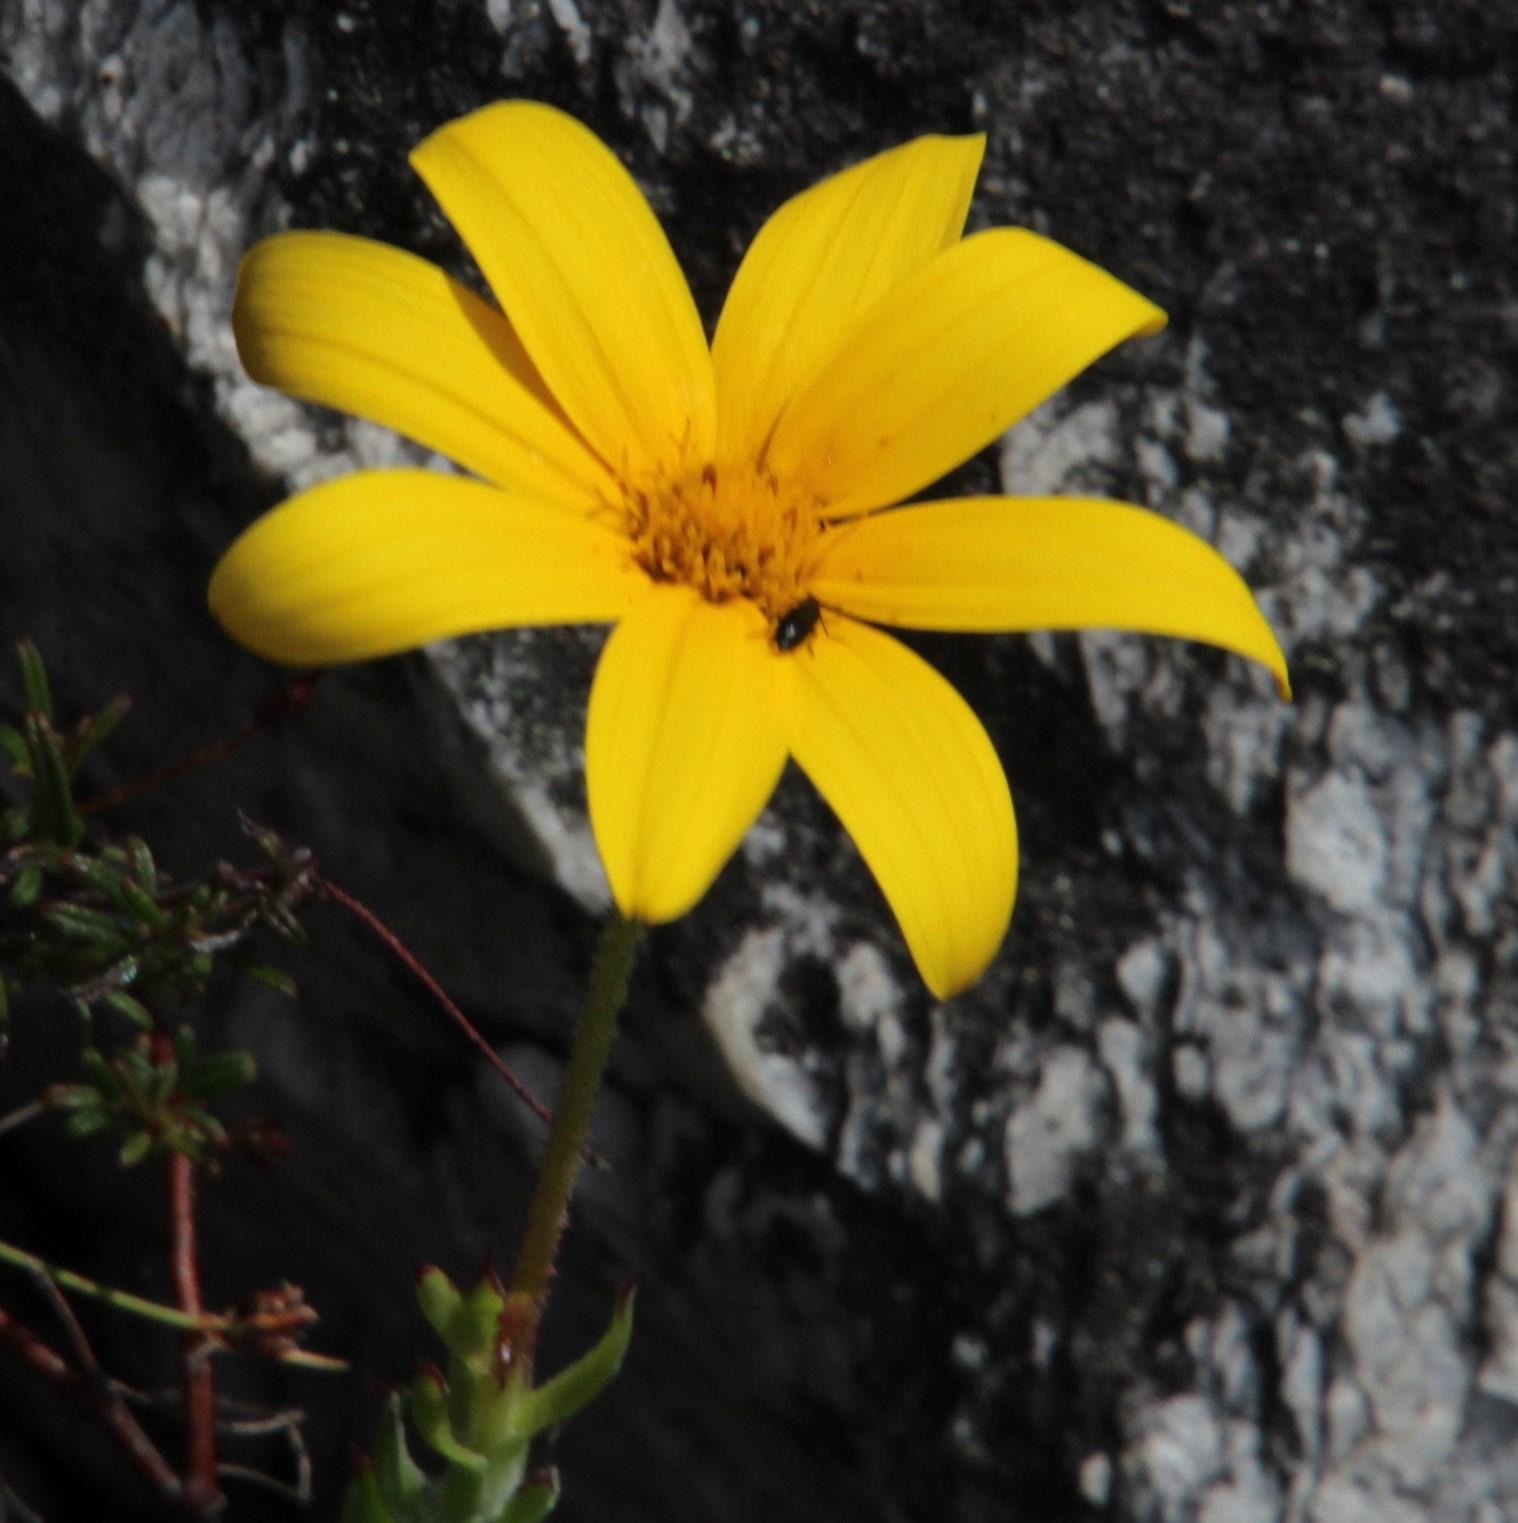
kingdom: Plantae
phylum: Tracheophyta
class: Magnoliopsida
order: Asterales
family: Asteraceae
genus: Osteospermum
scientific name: Osteospermum polygaloides
